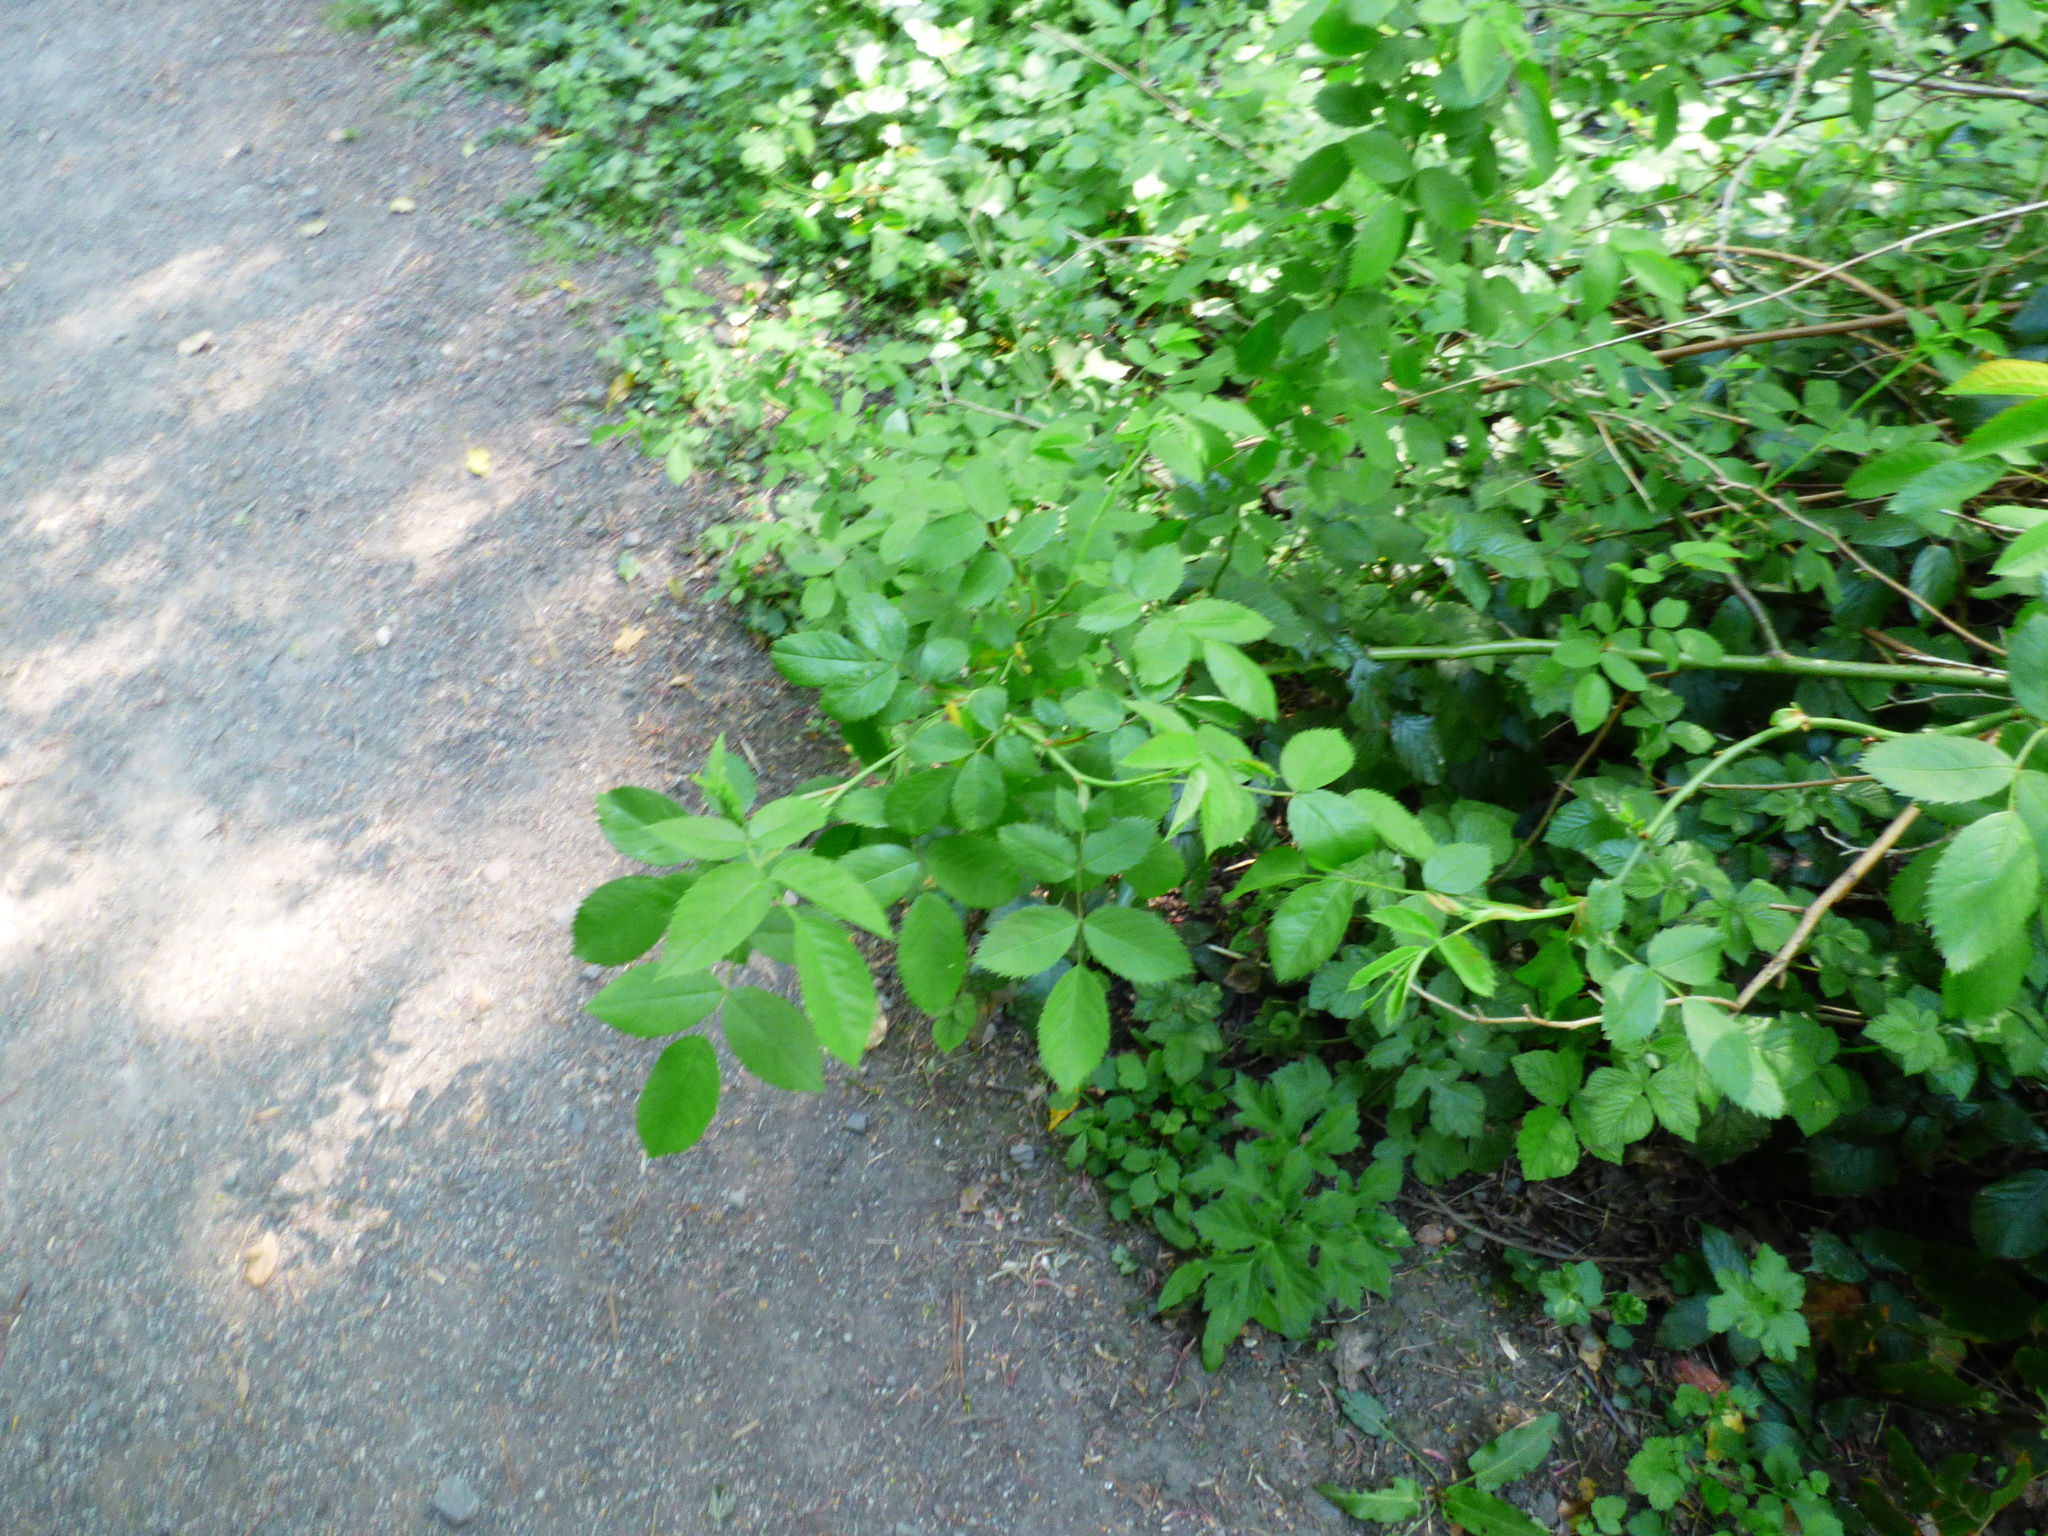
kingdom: Plantae
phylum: Tracheophyta
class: Magnoliopsida
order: Rosales
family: Rosaceae
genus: Rosa
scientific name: Rosa canina
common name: Dog rose
